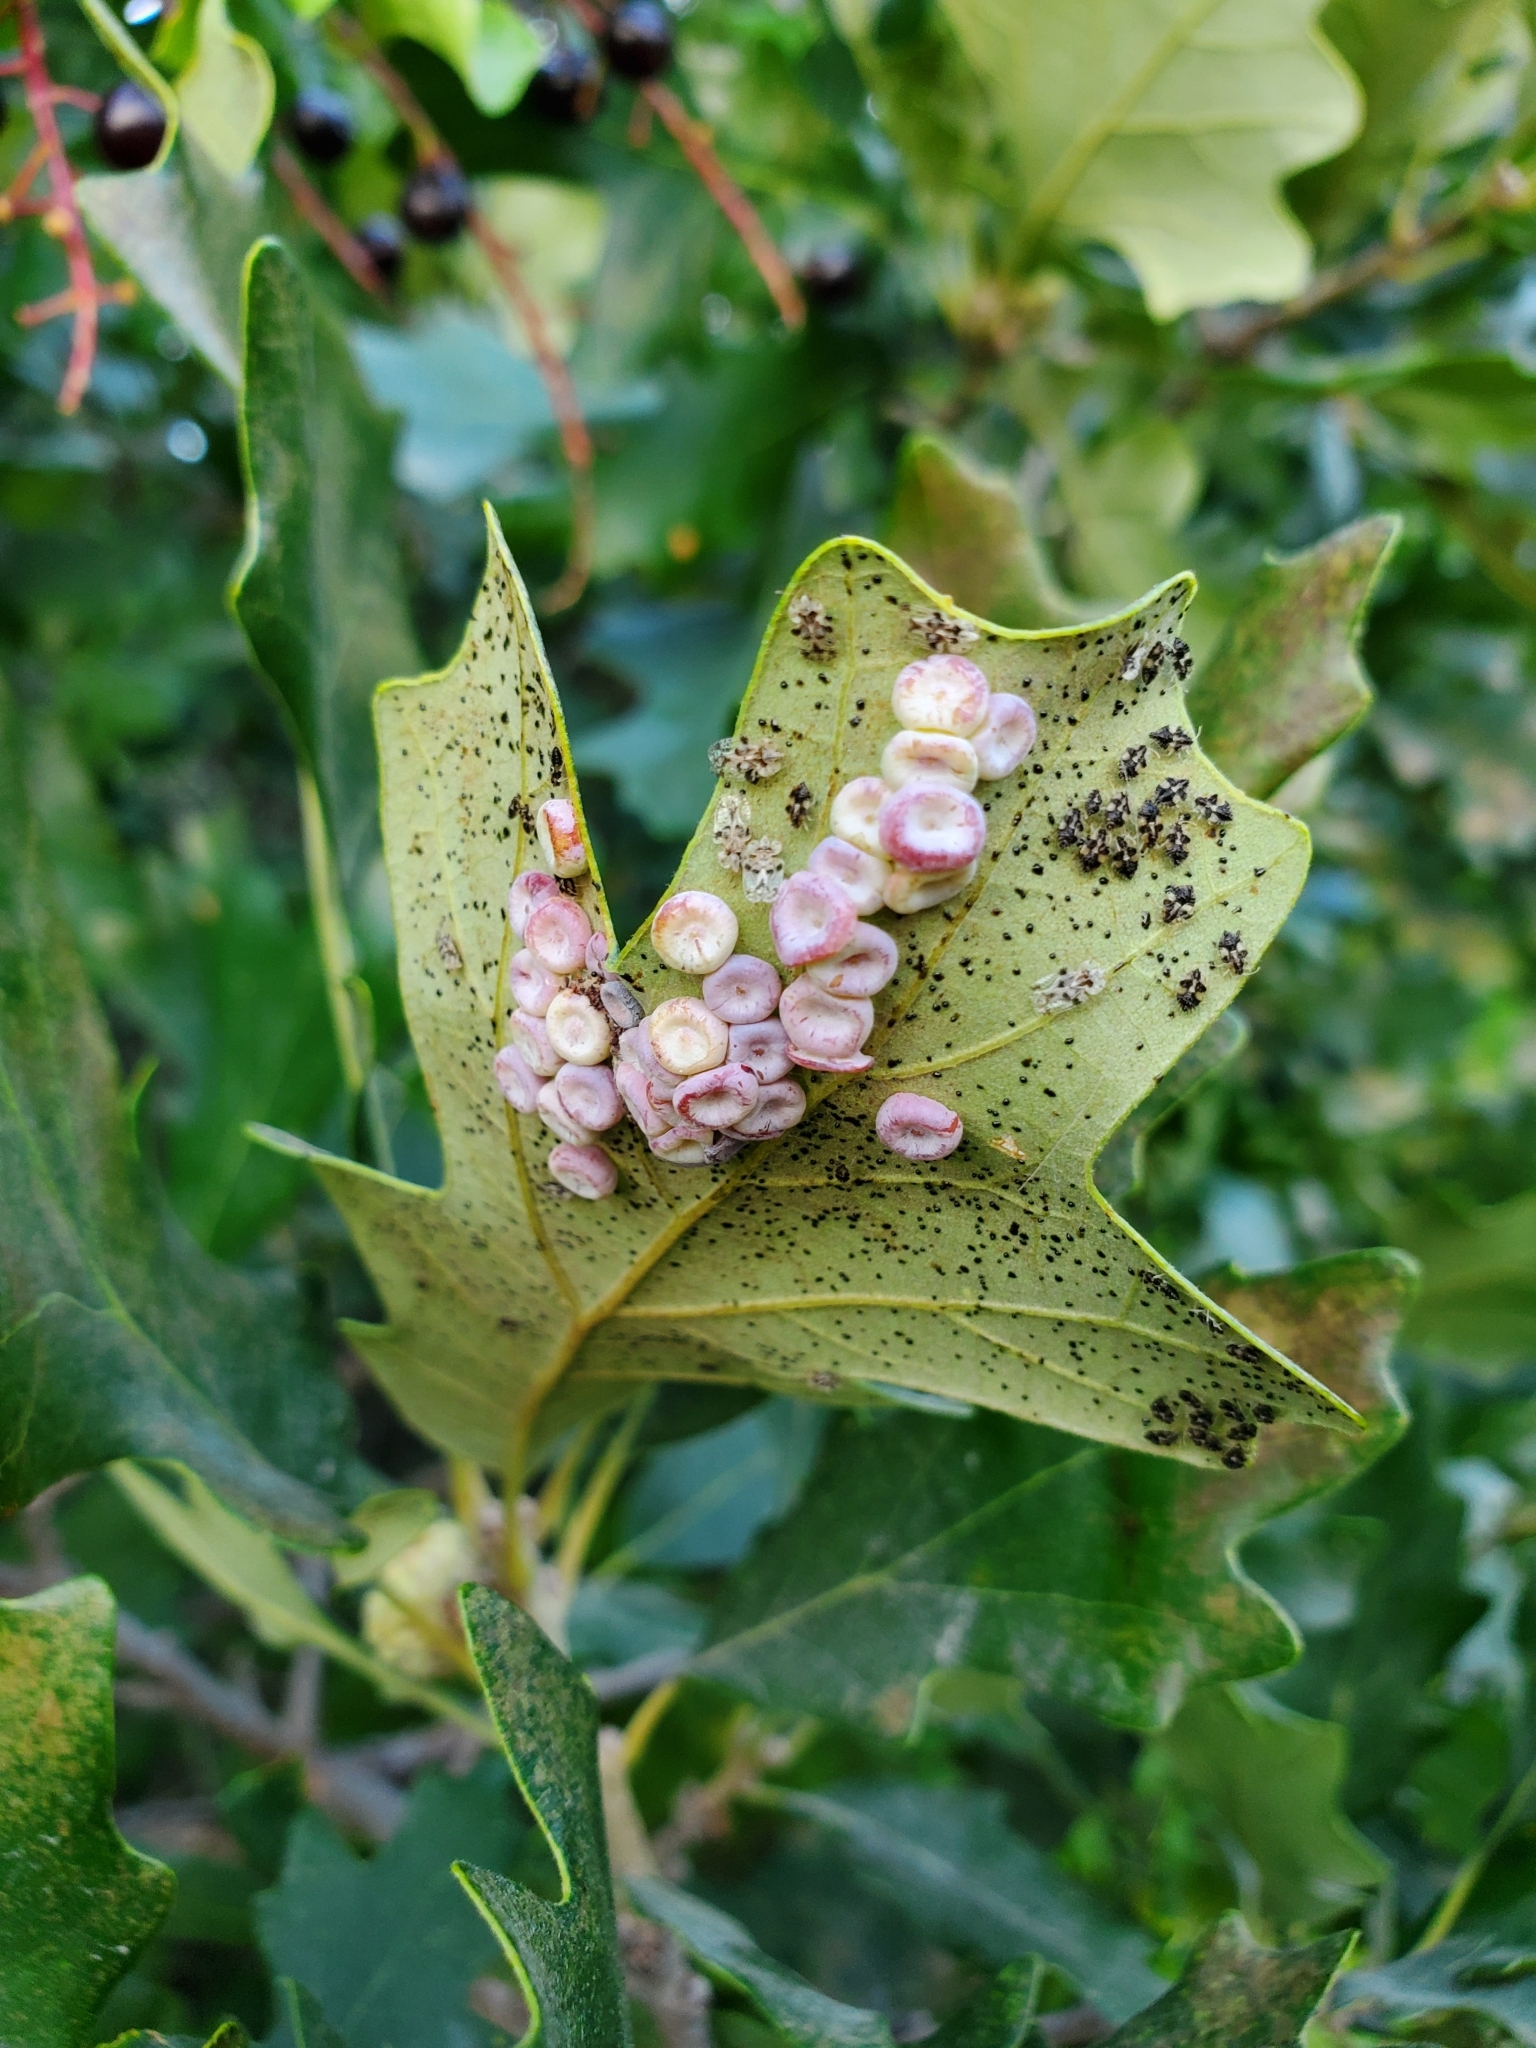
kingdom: Animalia
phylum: Arthropoda
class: Insecta
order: Hymenoptera
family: Cynipidae
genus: Phylloteras
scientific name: Phylloteras poculum
